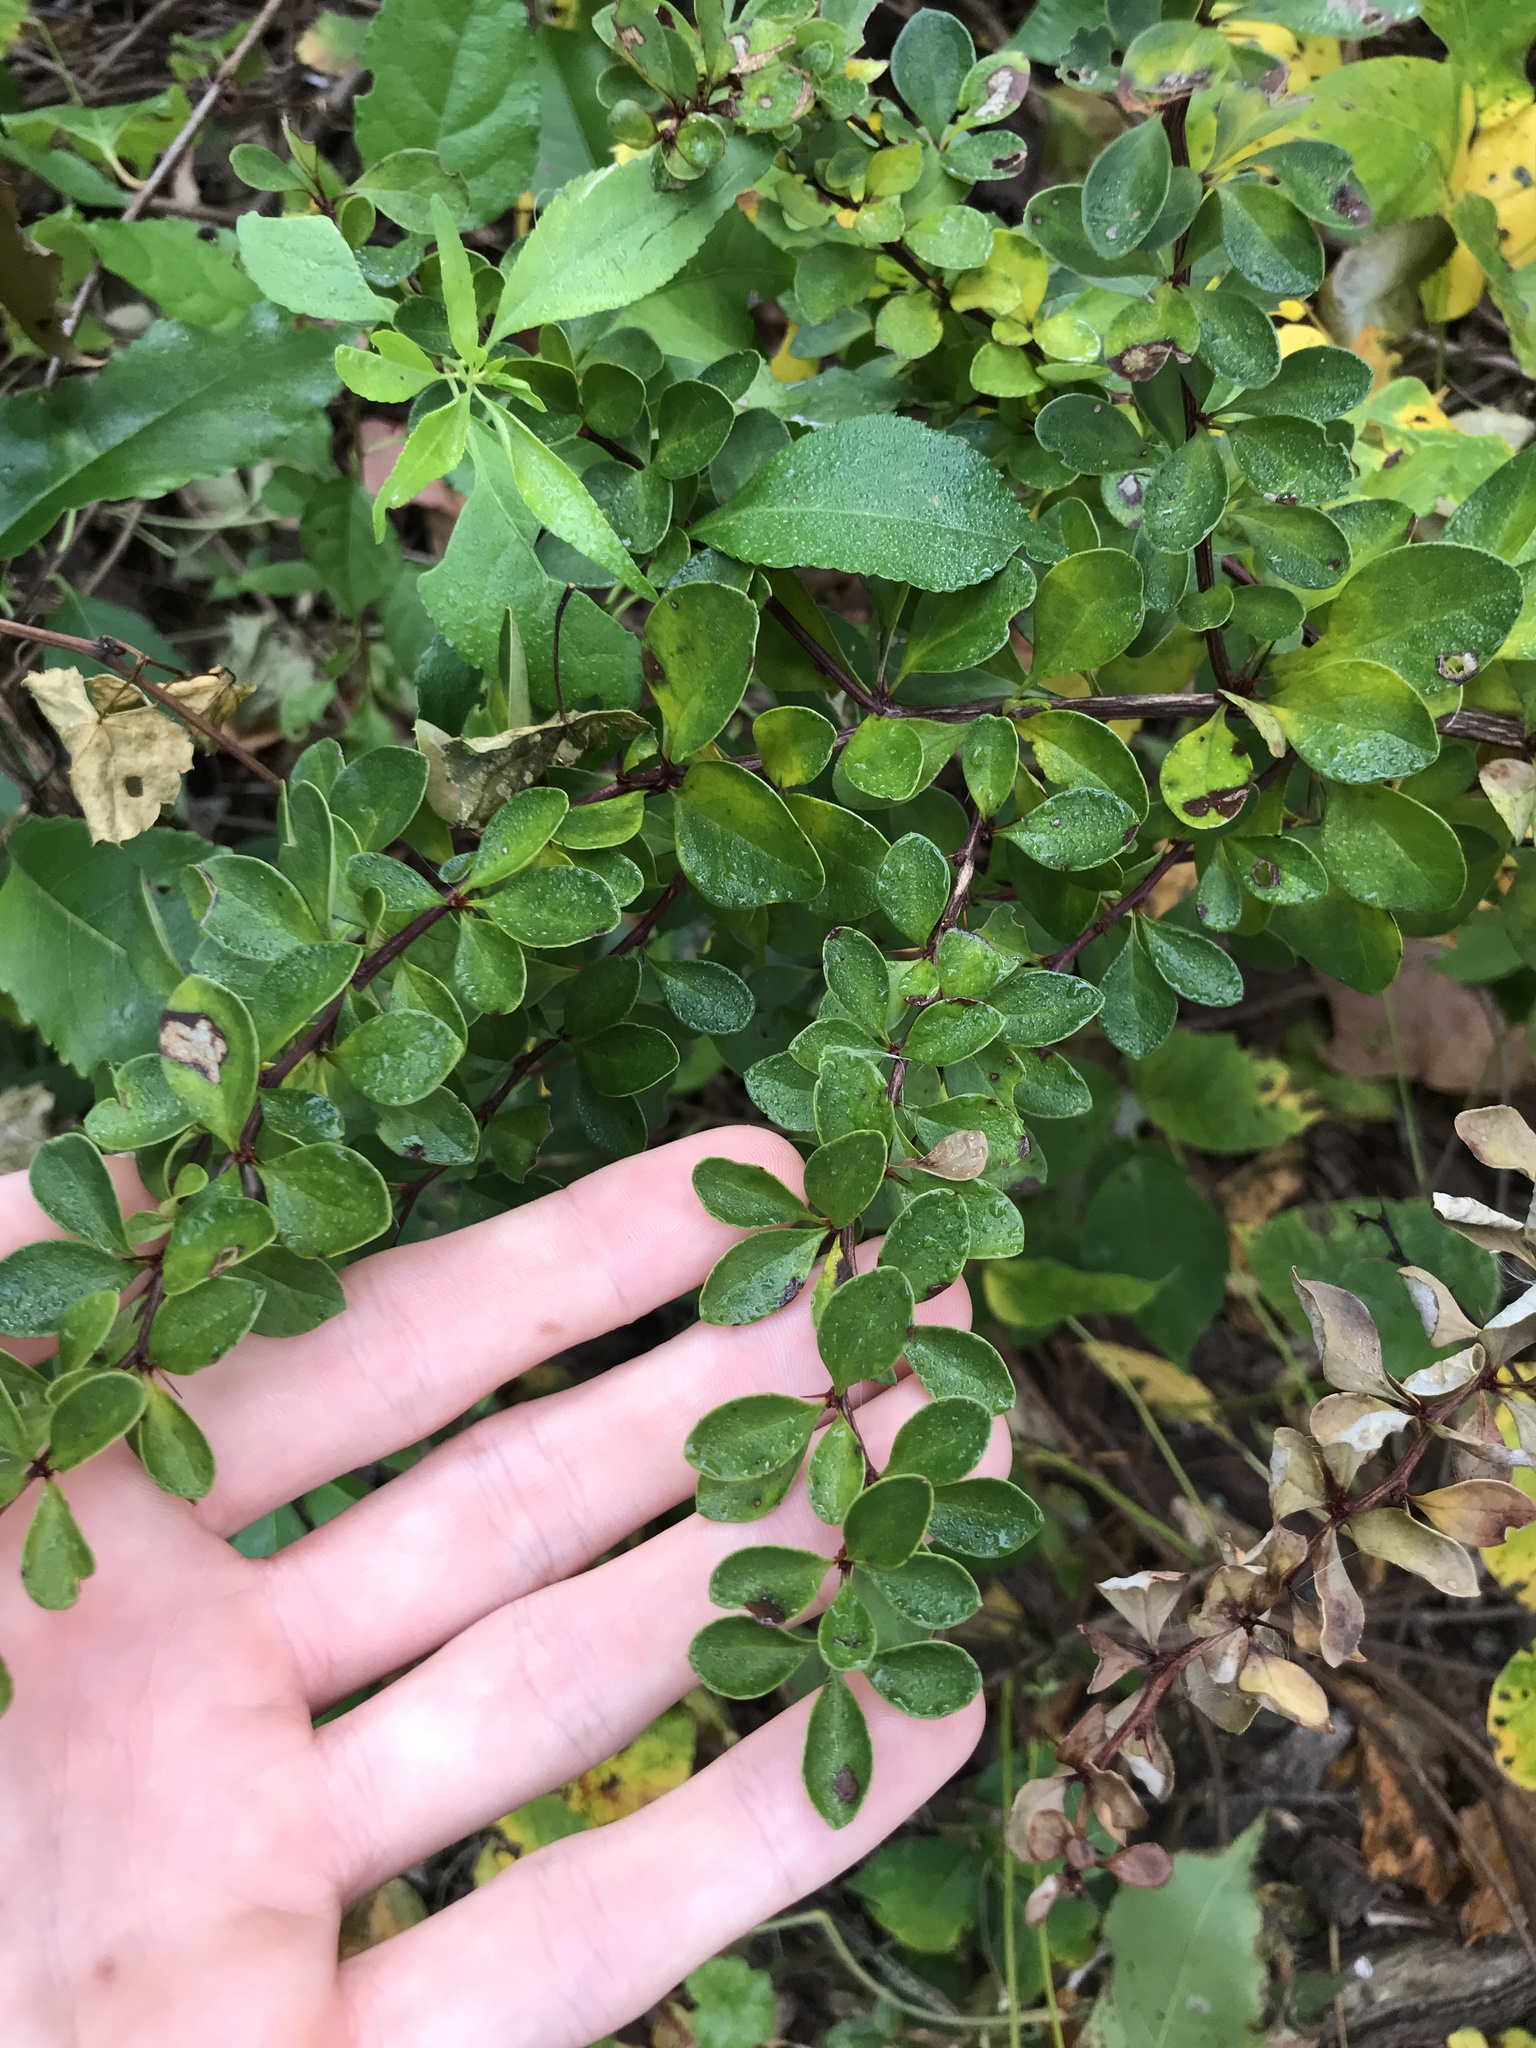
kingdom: Plantae
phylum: Tracheophyta
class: Magnoliopsida
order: Ranunculales
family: Berberidaceae
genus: Berberis
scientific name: Berberis thunbergii
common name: Japanese barberry
